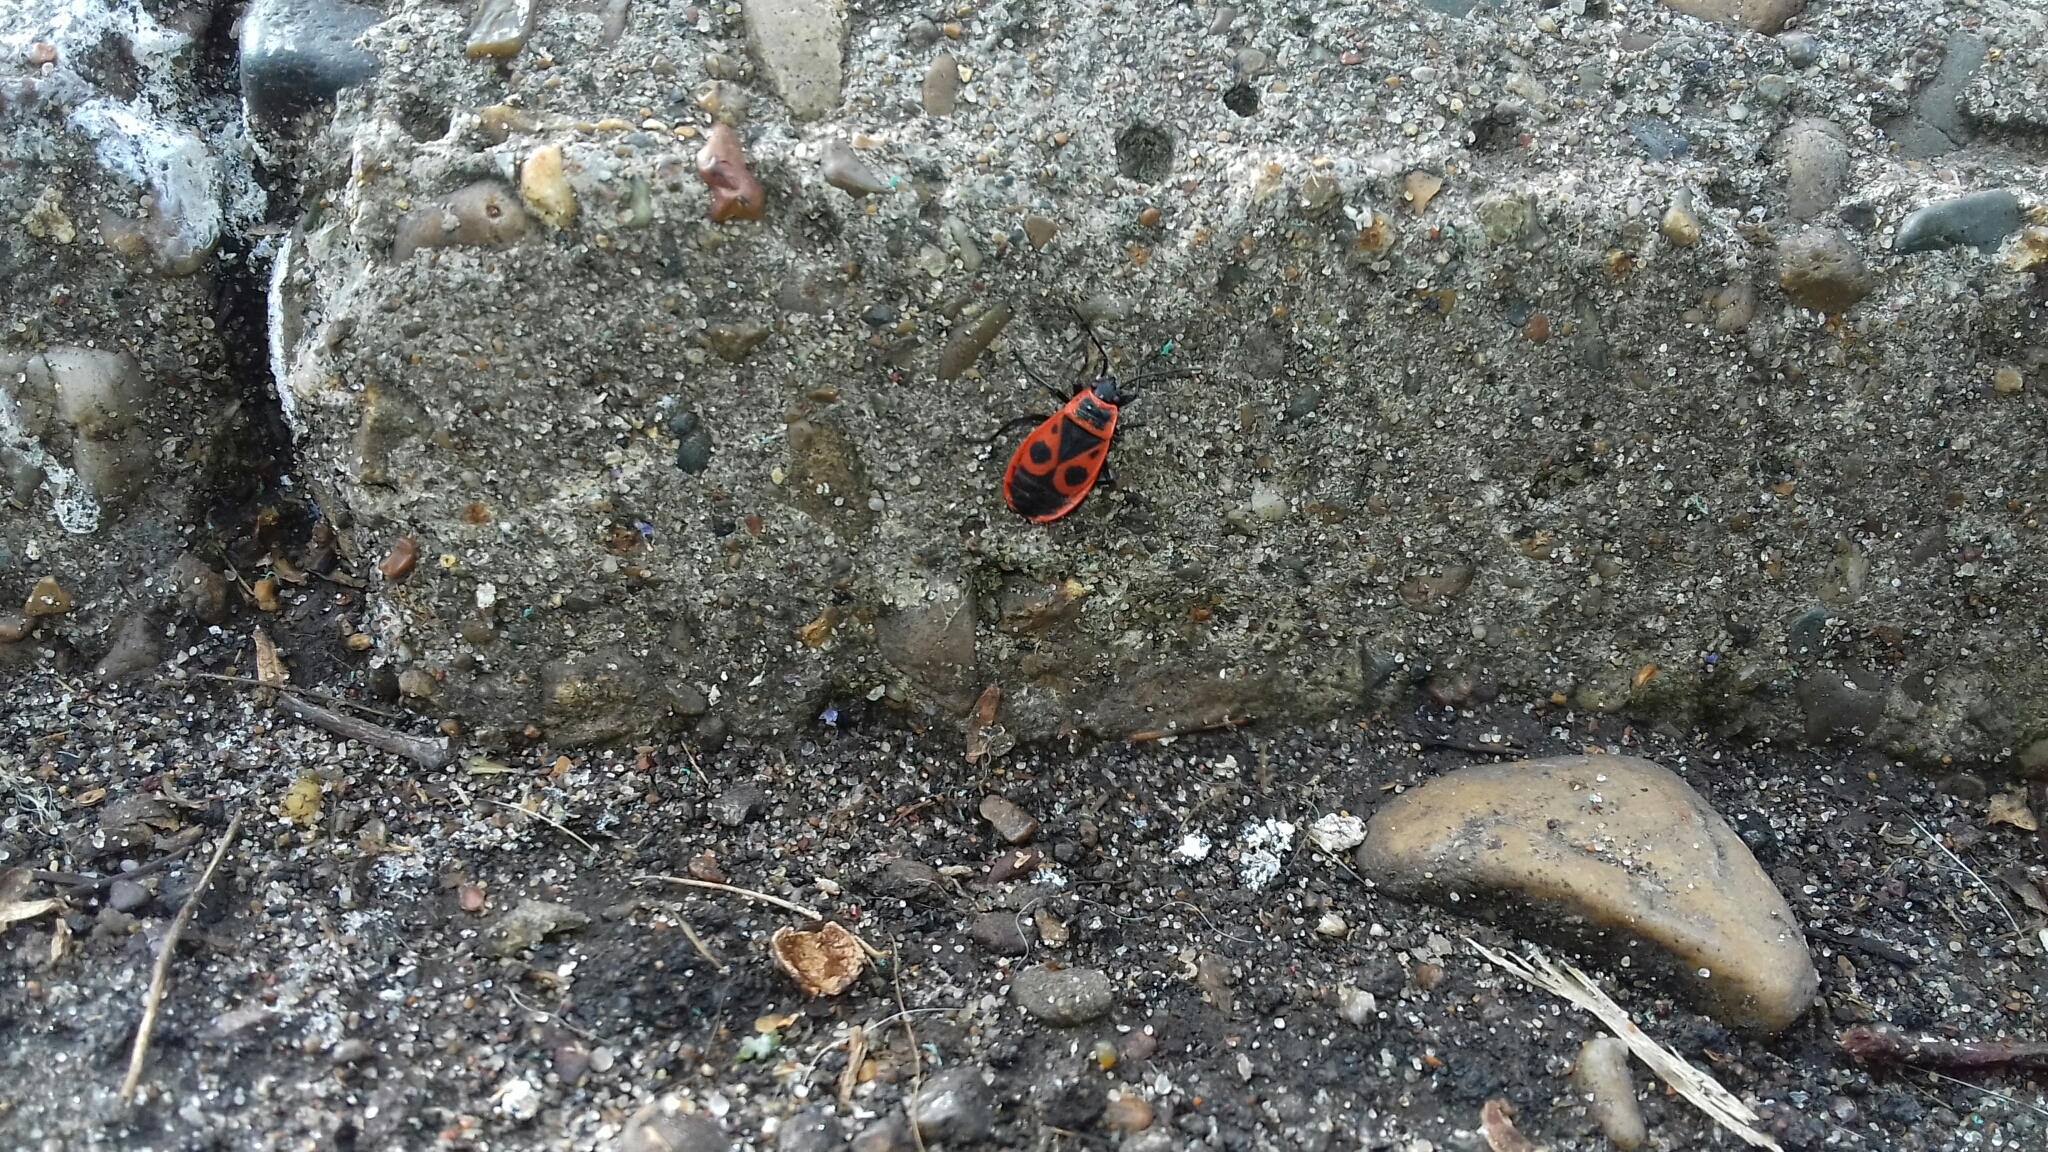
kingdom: Animalia
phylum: Arthropoda
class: Insecta
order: Hemiptera
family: Pyrrhocoridae
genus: Pyrrhocoris
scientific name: Pyrrhocoris apterus
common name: Firebug
